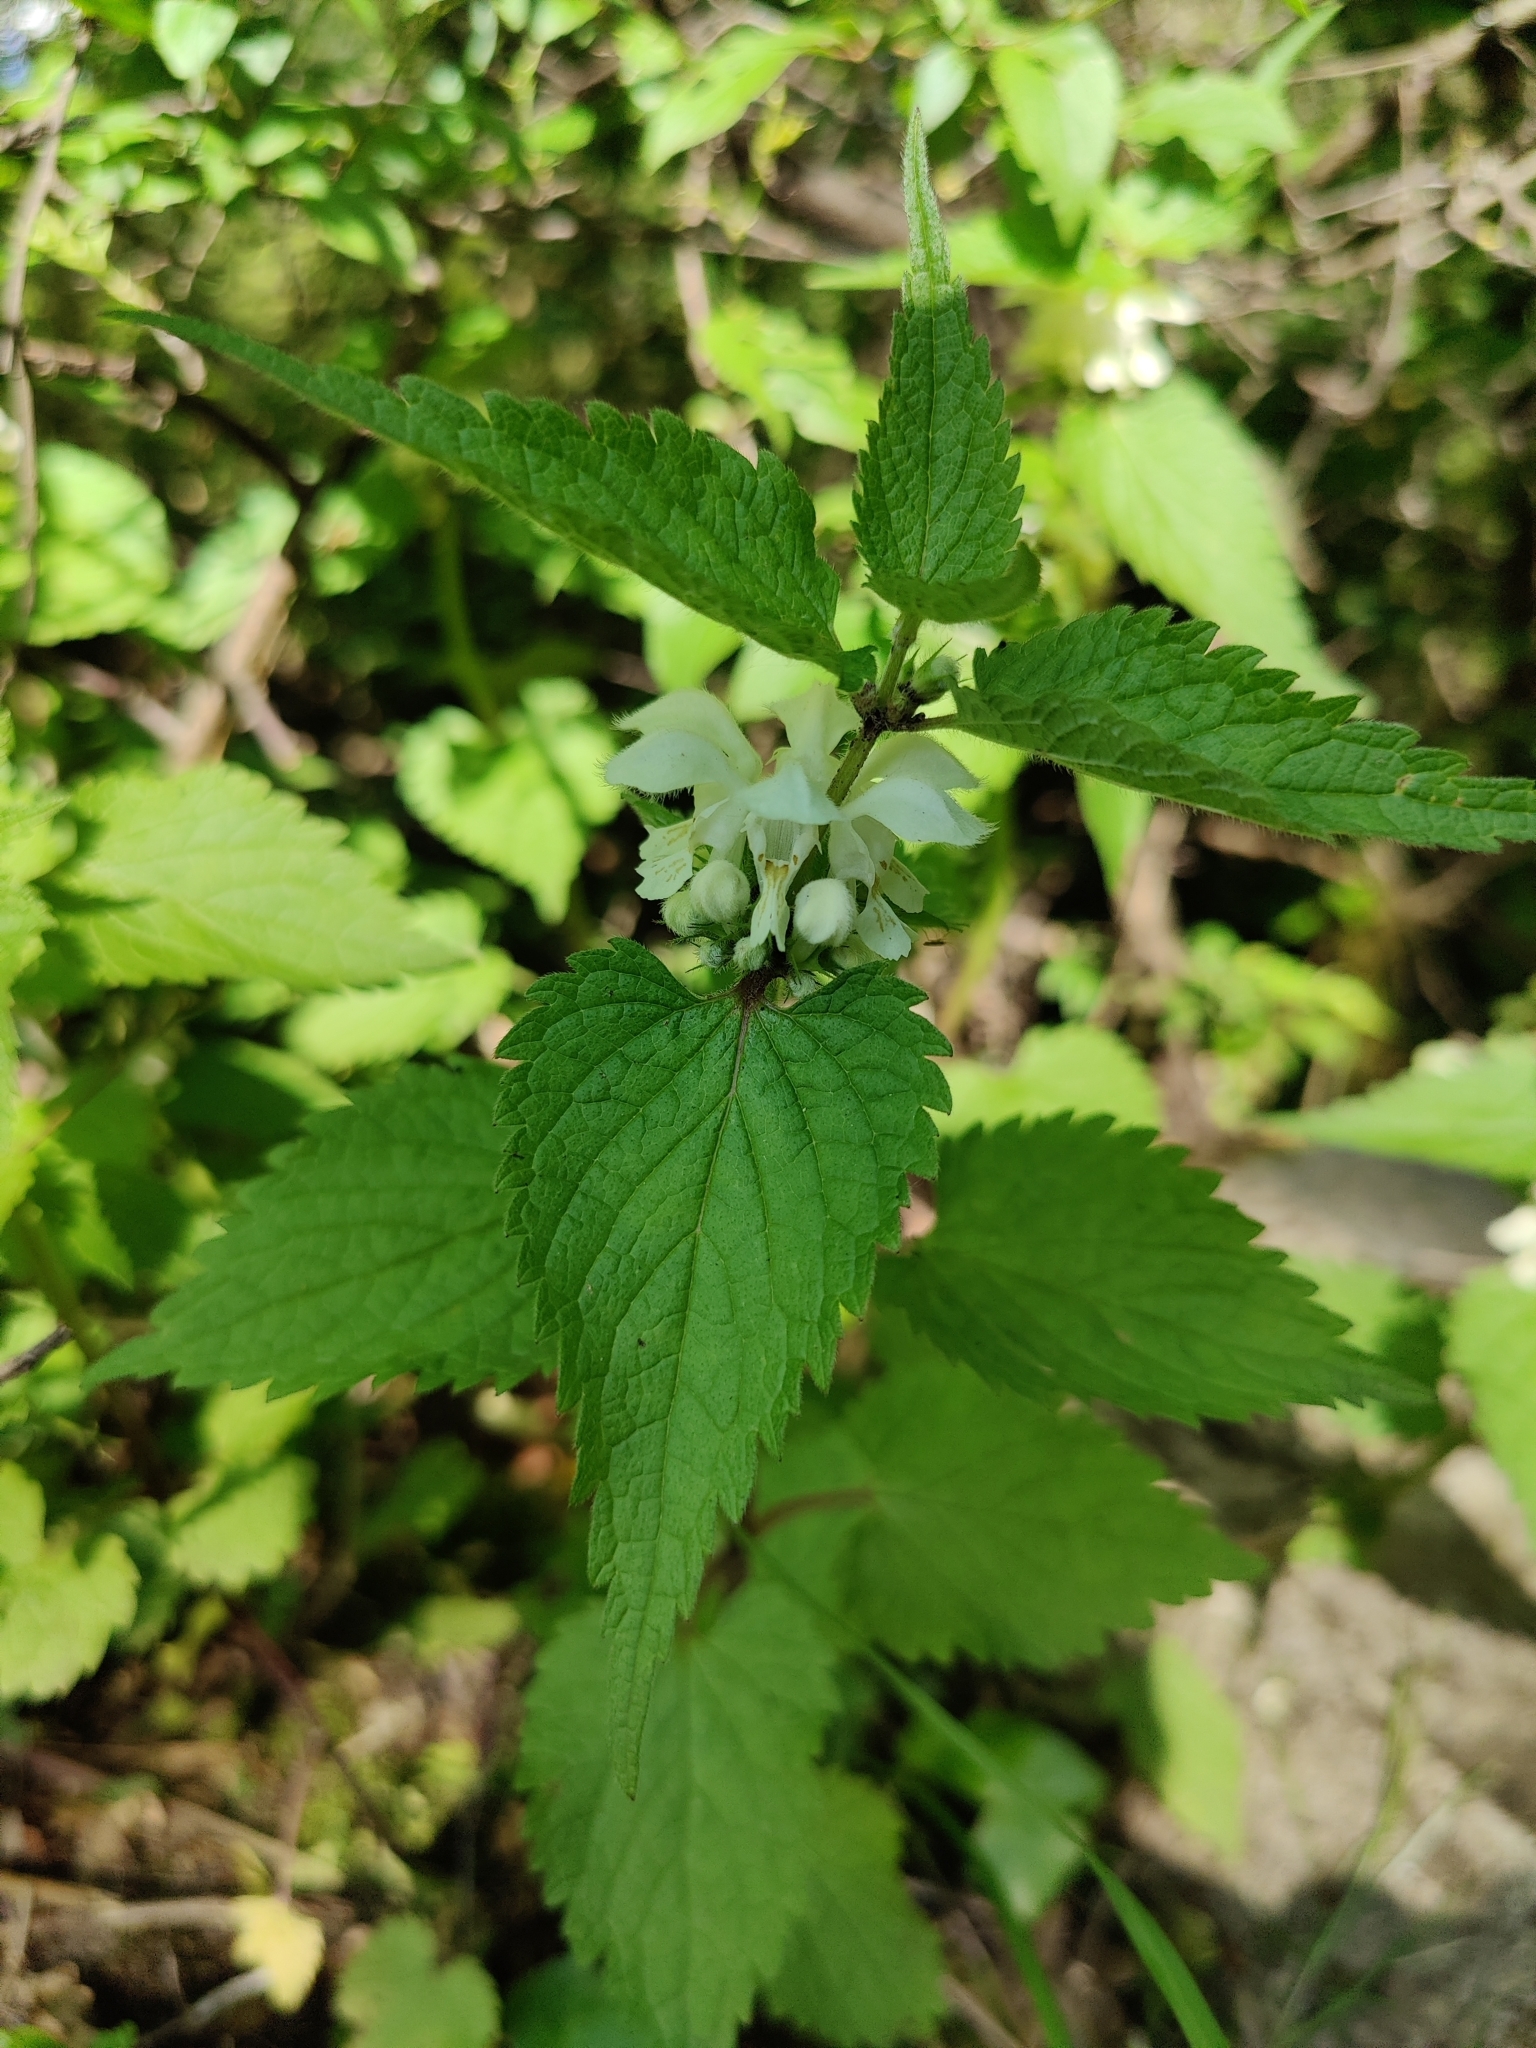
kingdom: Plantae
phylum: Tracheophyta
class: Magnoliopsida
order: Lamiales
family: Lamiaceae
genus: Lamium
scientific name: Lamium album
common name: White dead-nettle
